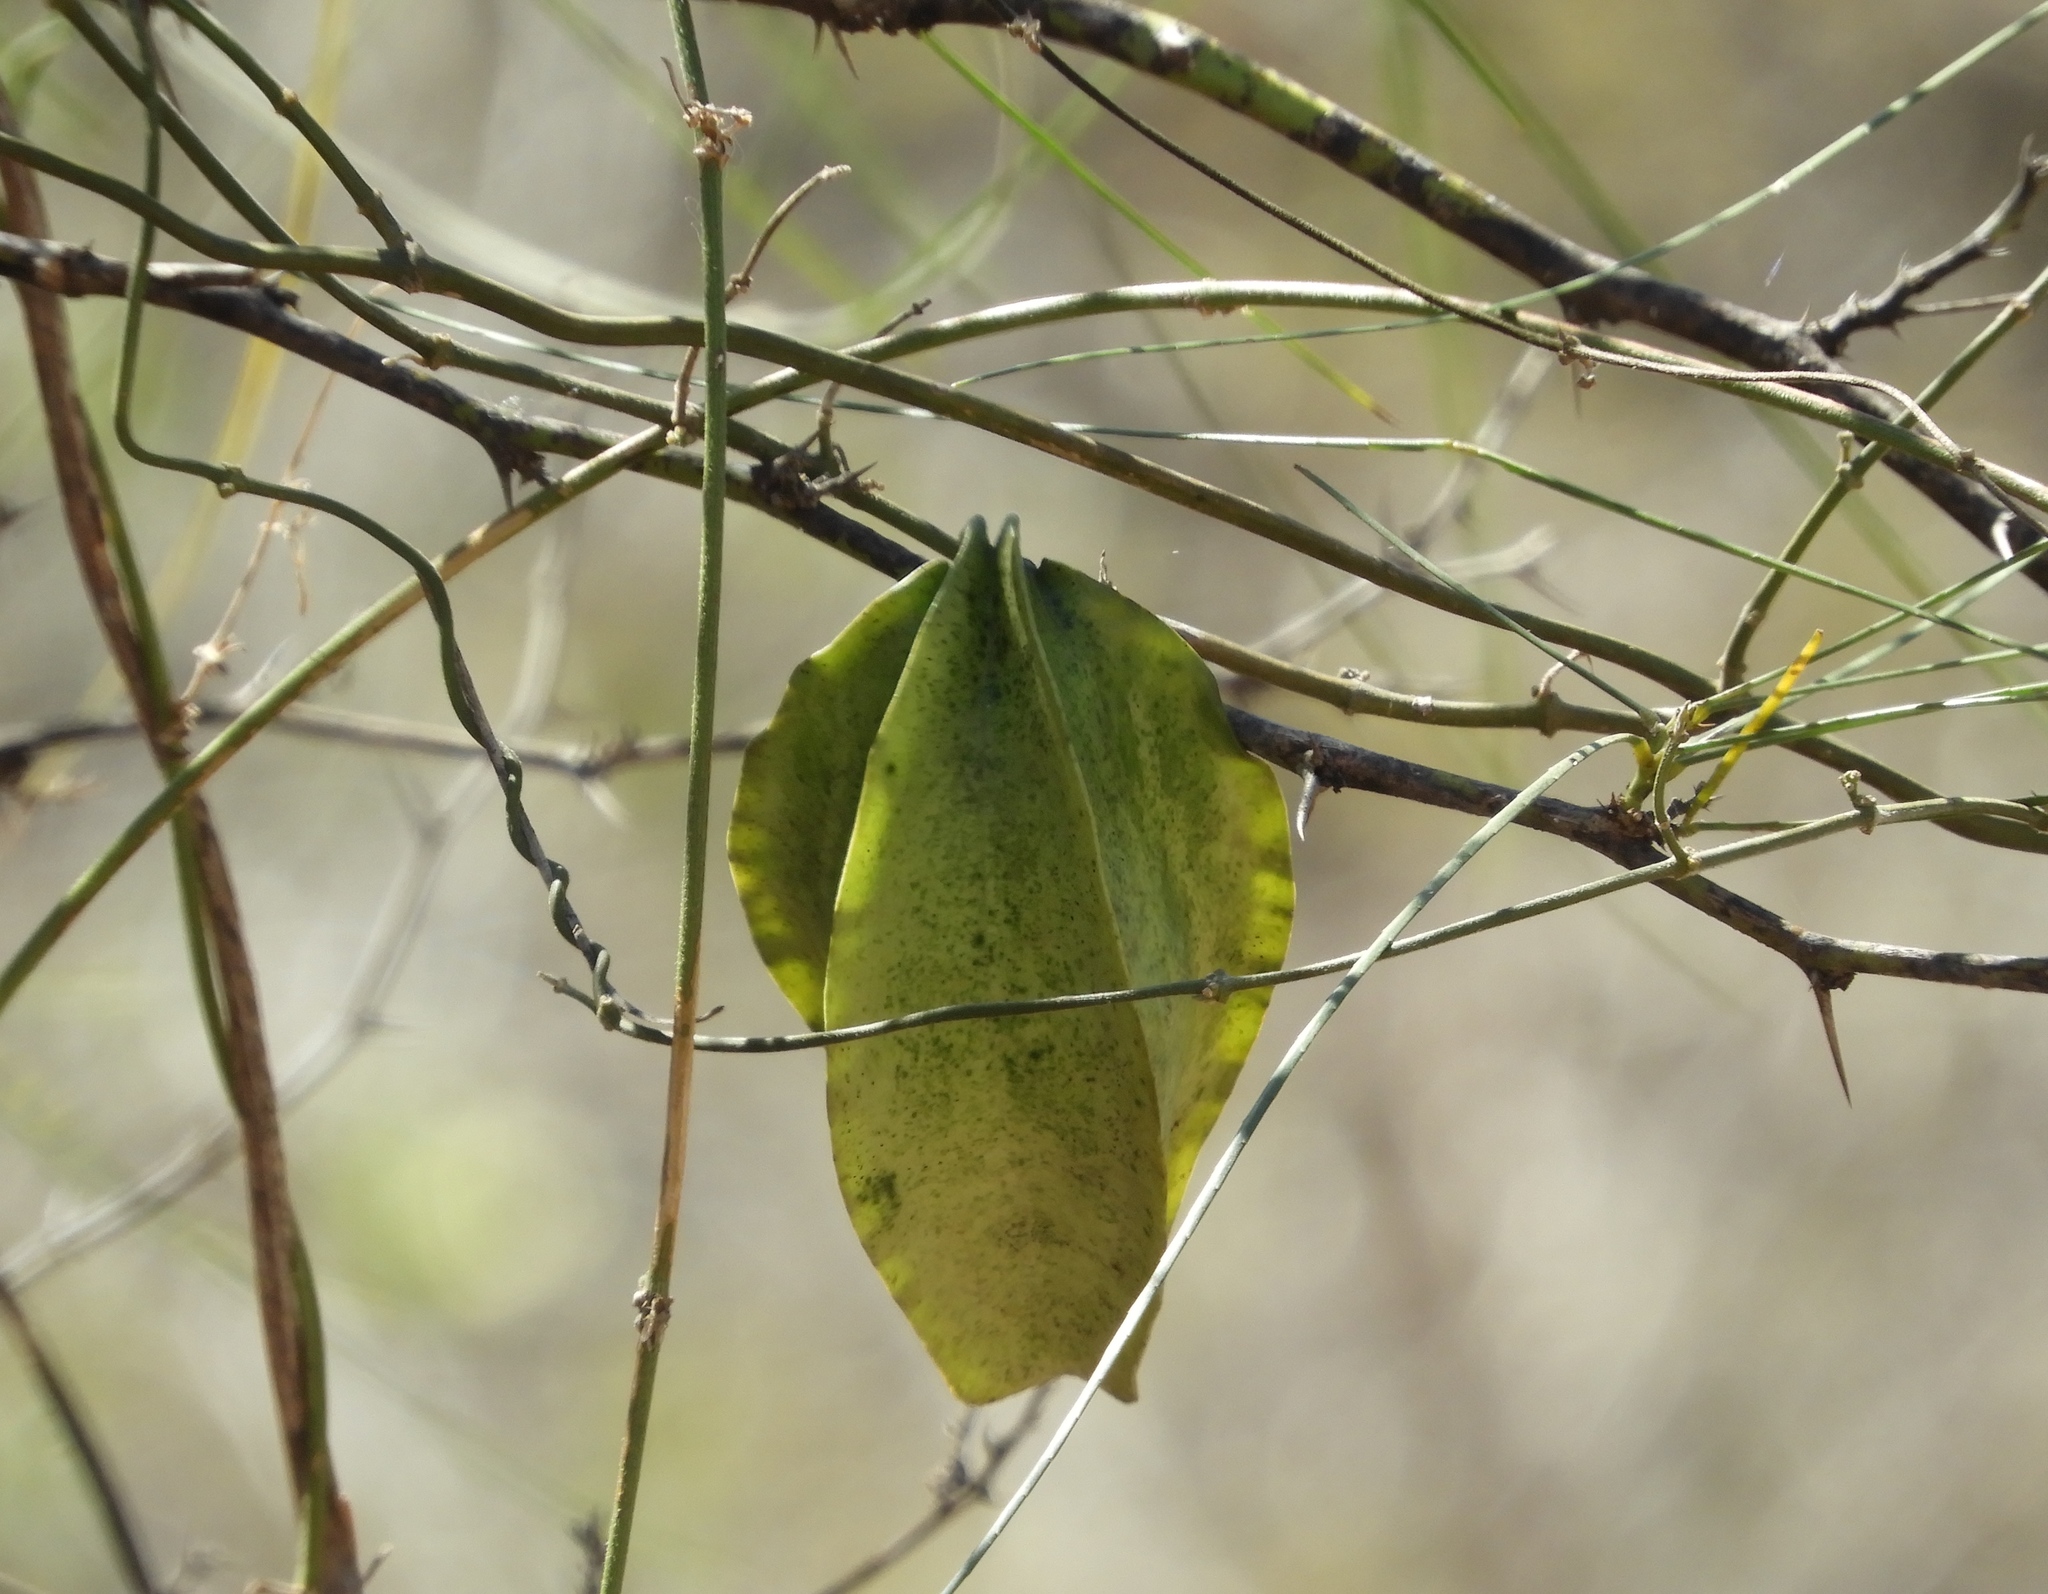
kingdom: Plantae
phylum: Tracheophyta
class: Magnoliopsida
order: Gentianales
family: Apocynaceae
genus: Gonolobus
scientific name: Gonolobus naturalistae
